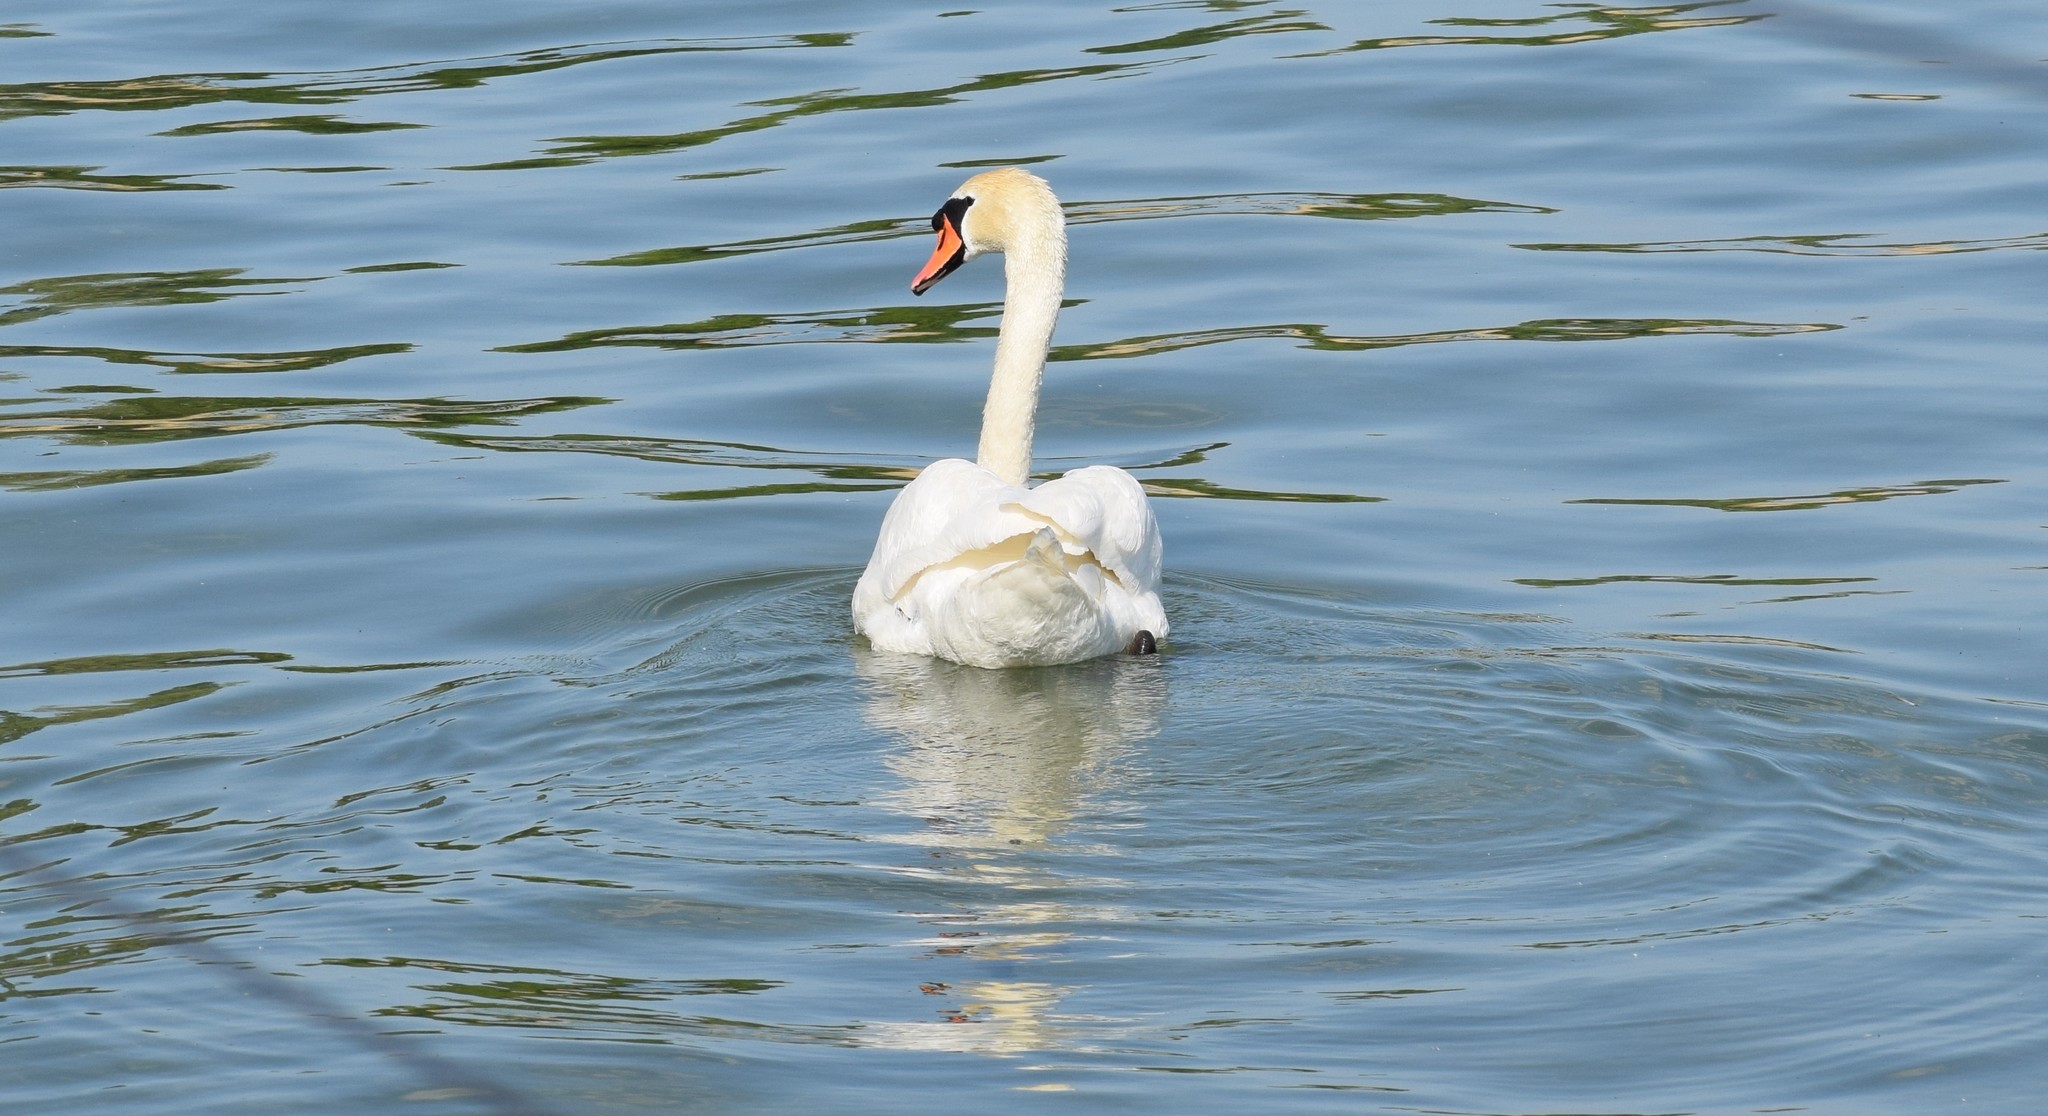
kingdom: Animalia
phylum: Chordata
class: Aves
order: Anseriformes
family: Anatidae
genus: Cygnus
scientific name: Cygnus olor
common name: Mute swan
